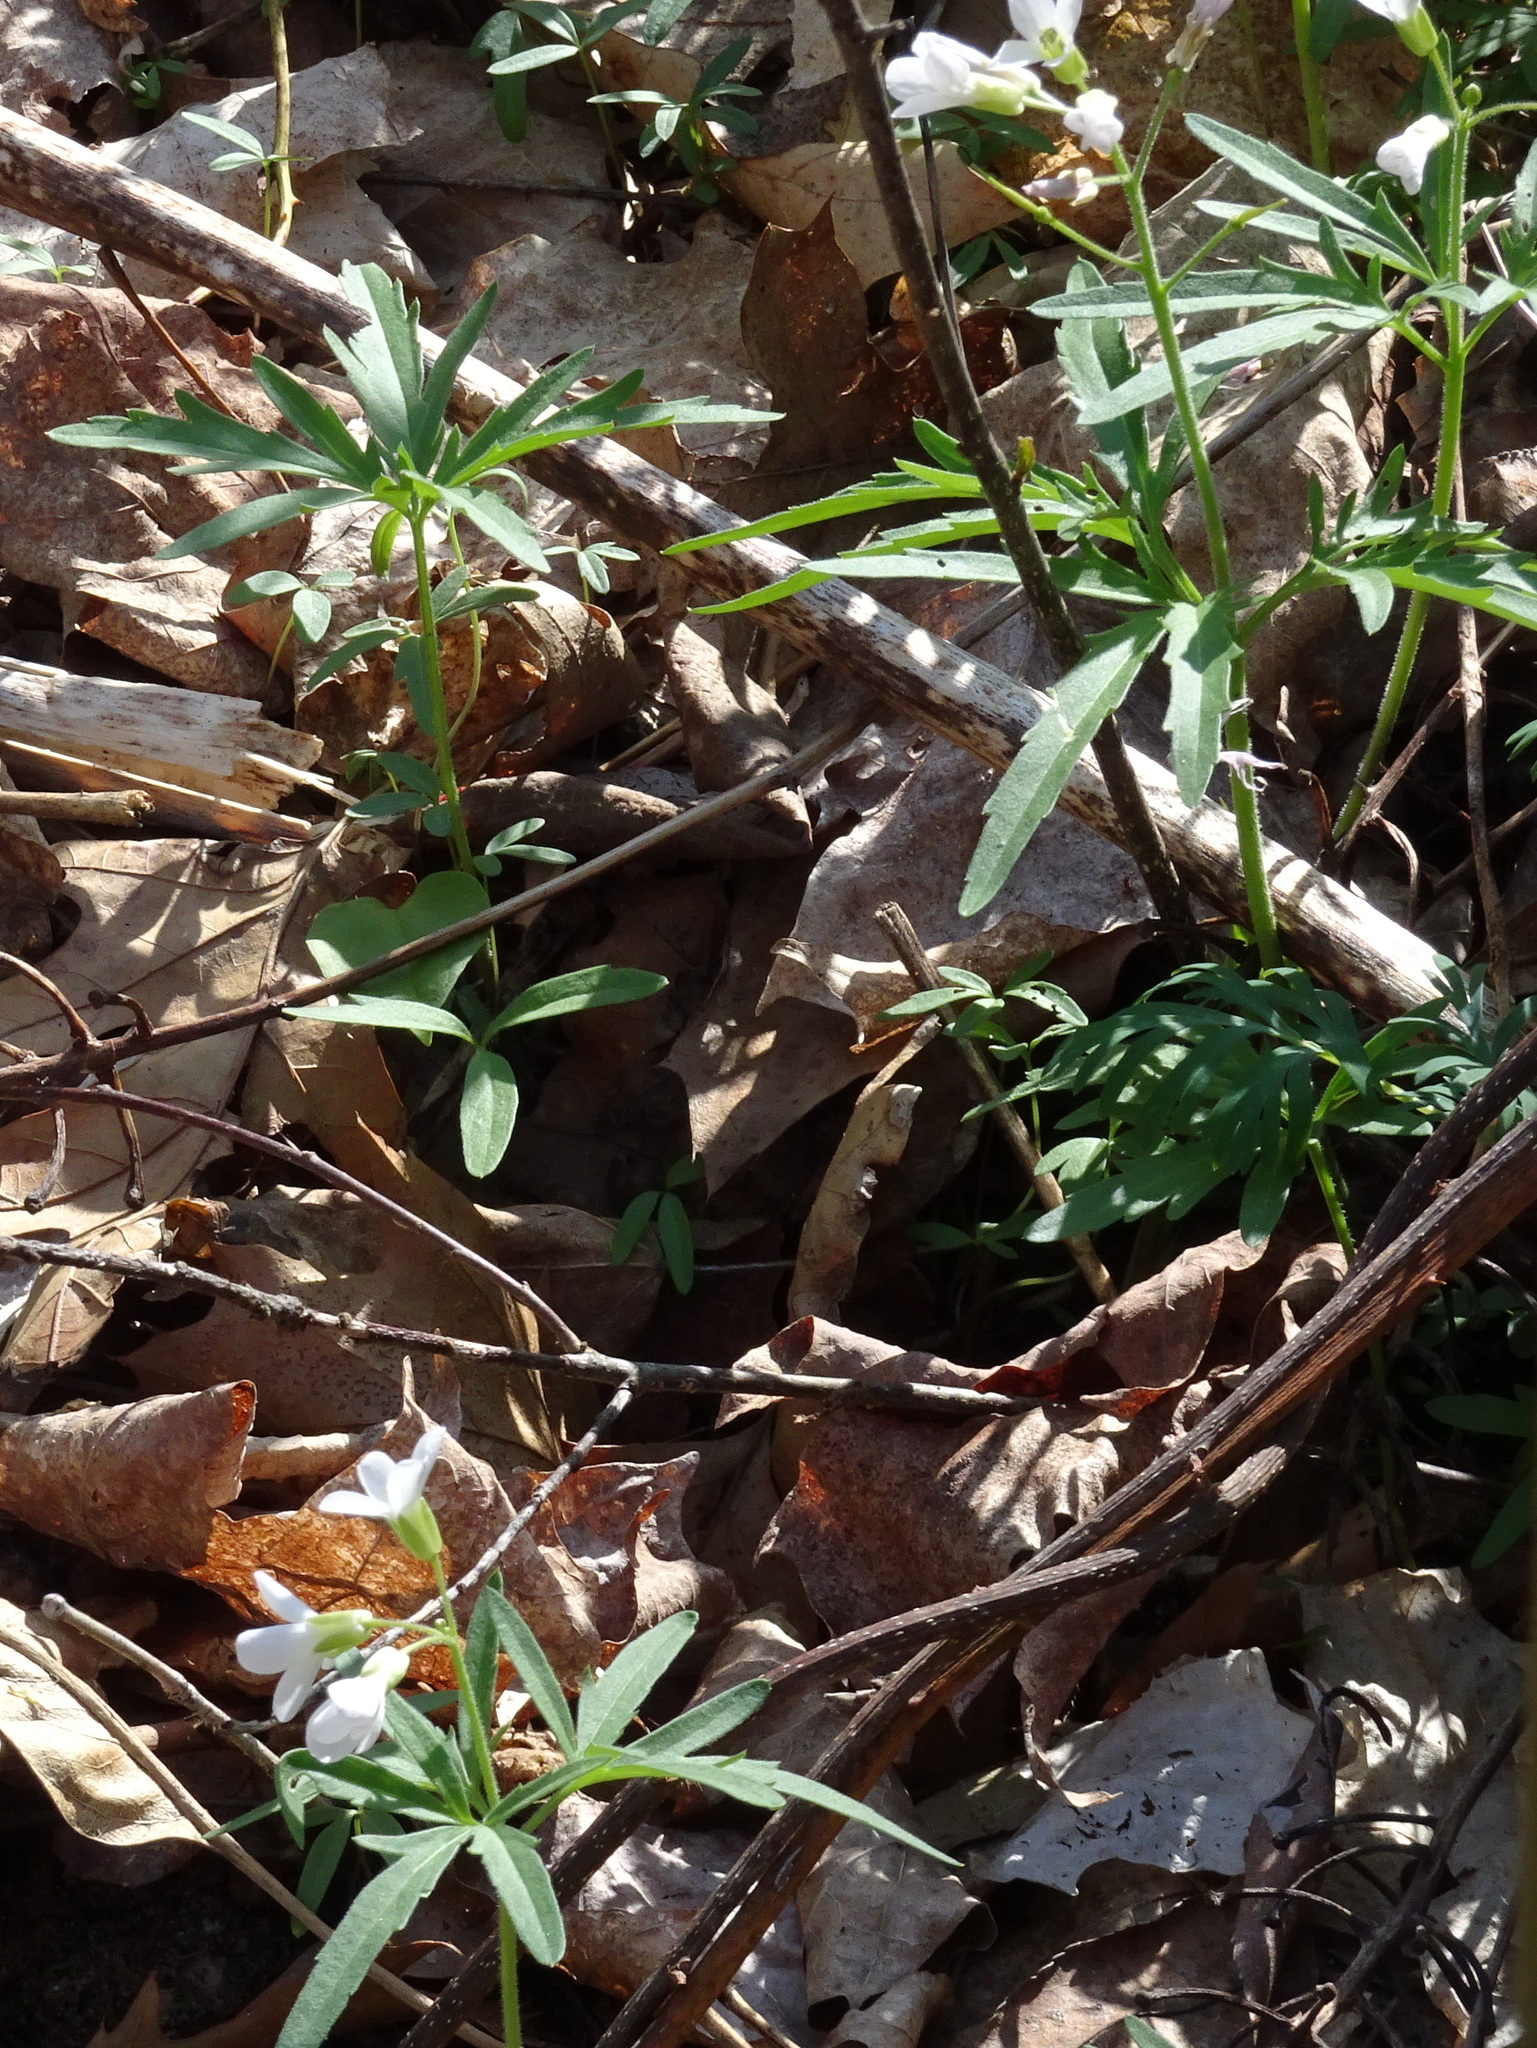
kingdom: Plantae
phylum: Tracheophyta
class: Magnoliopsida
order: Brassicales
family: Brassicaceae
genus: Cardamine
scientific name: Cardamine concatenata
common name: Cut-leaf toothcup
